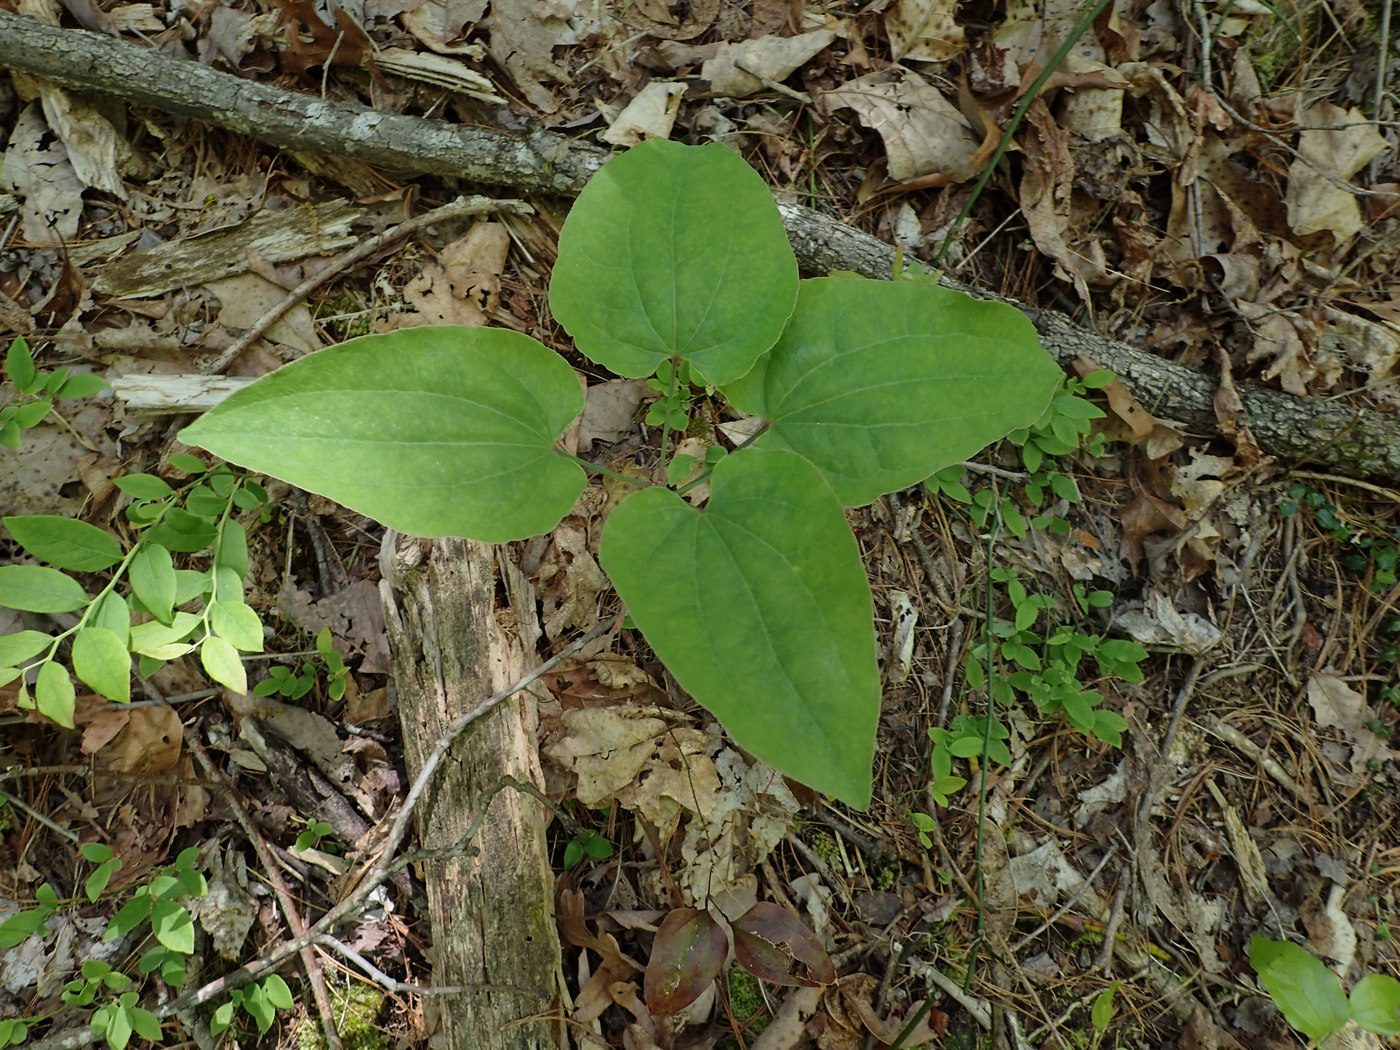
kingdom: Plantae
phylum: Tracheophyta
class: Liliopsida
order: Liliales
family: Smilacaceae
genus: Smilax
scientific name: Smilax biltmoreana
